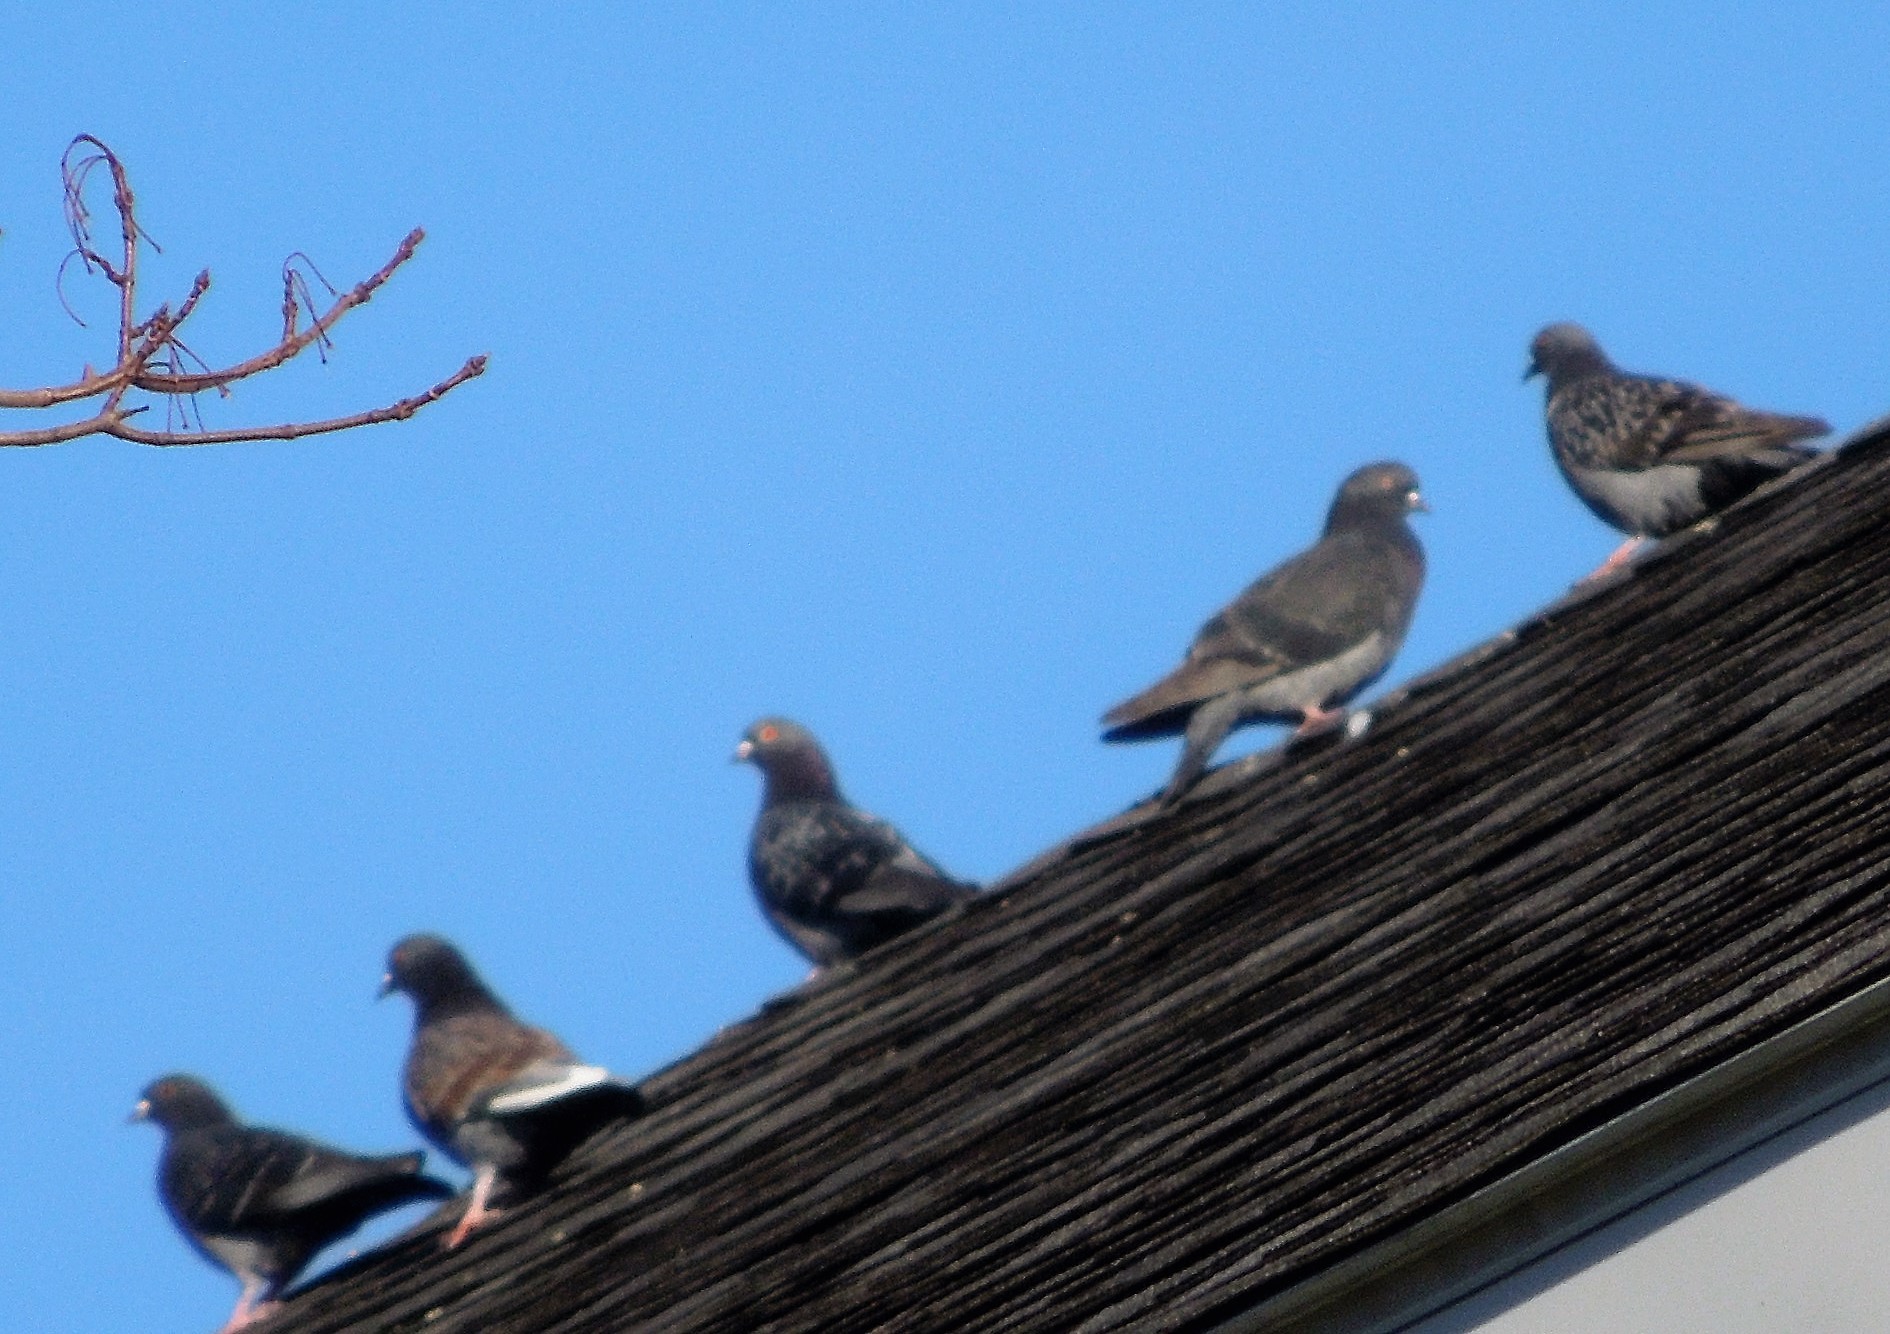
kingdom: Animalia
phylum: Chordata
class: Aves
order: Columbiformes
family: Columbidae
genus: Columba
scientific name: Columba livia
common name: Rock pigeon
